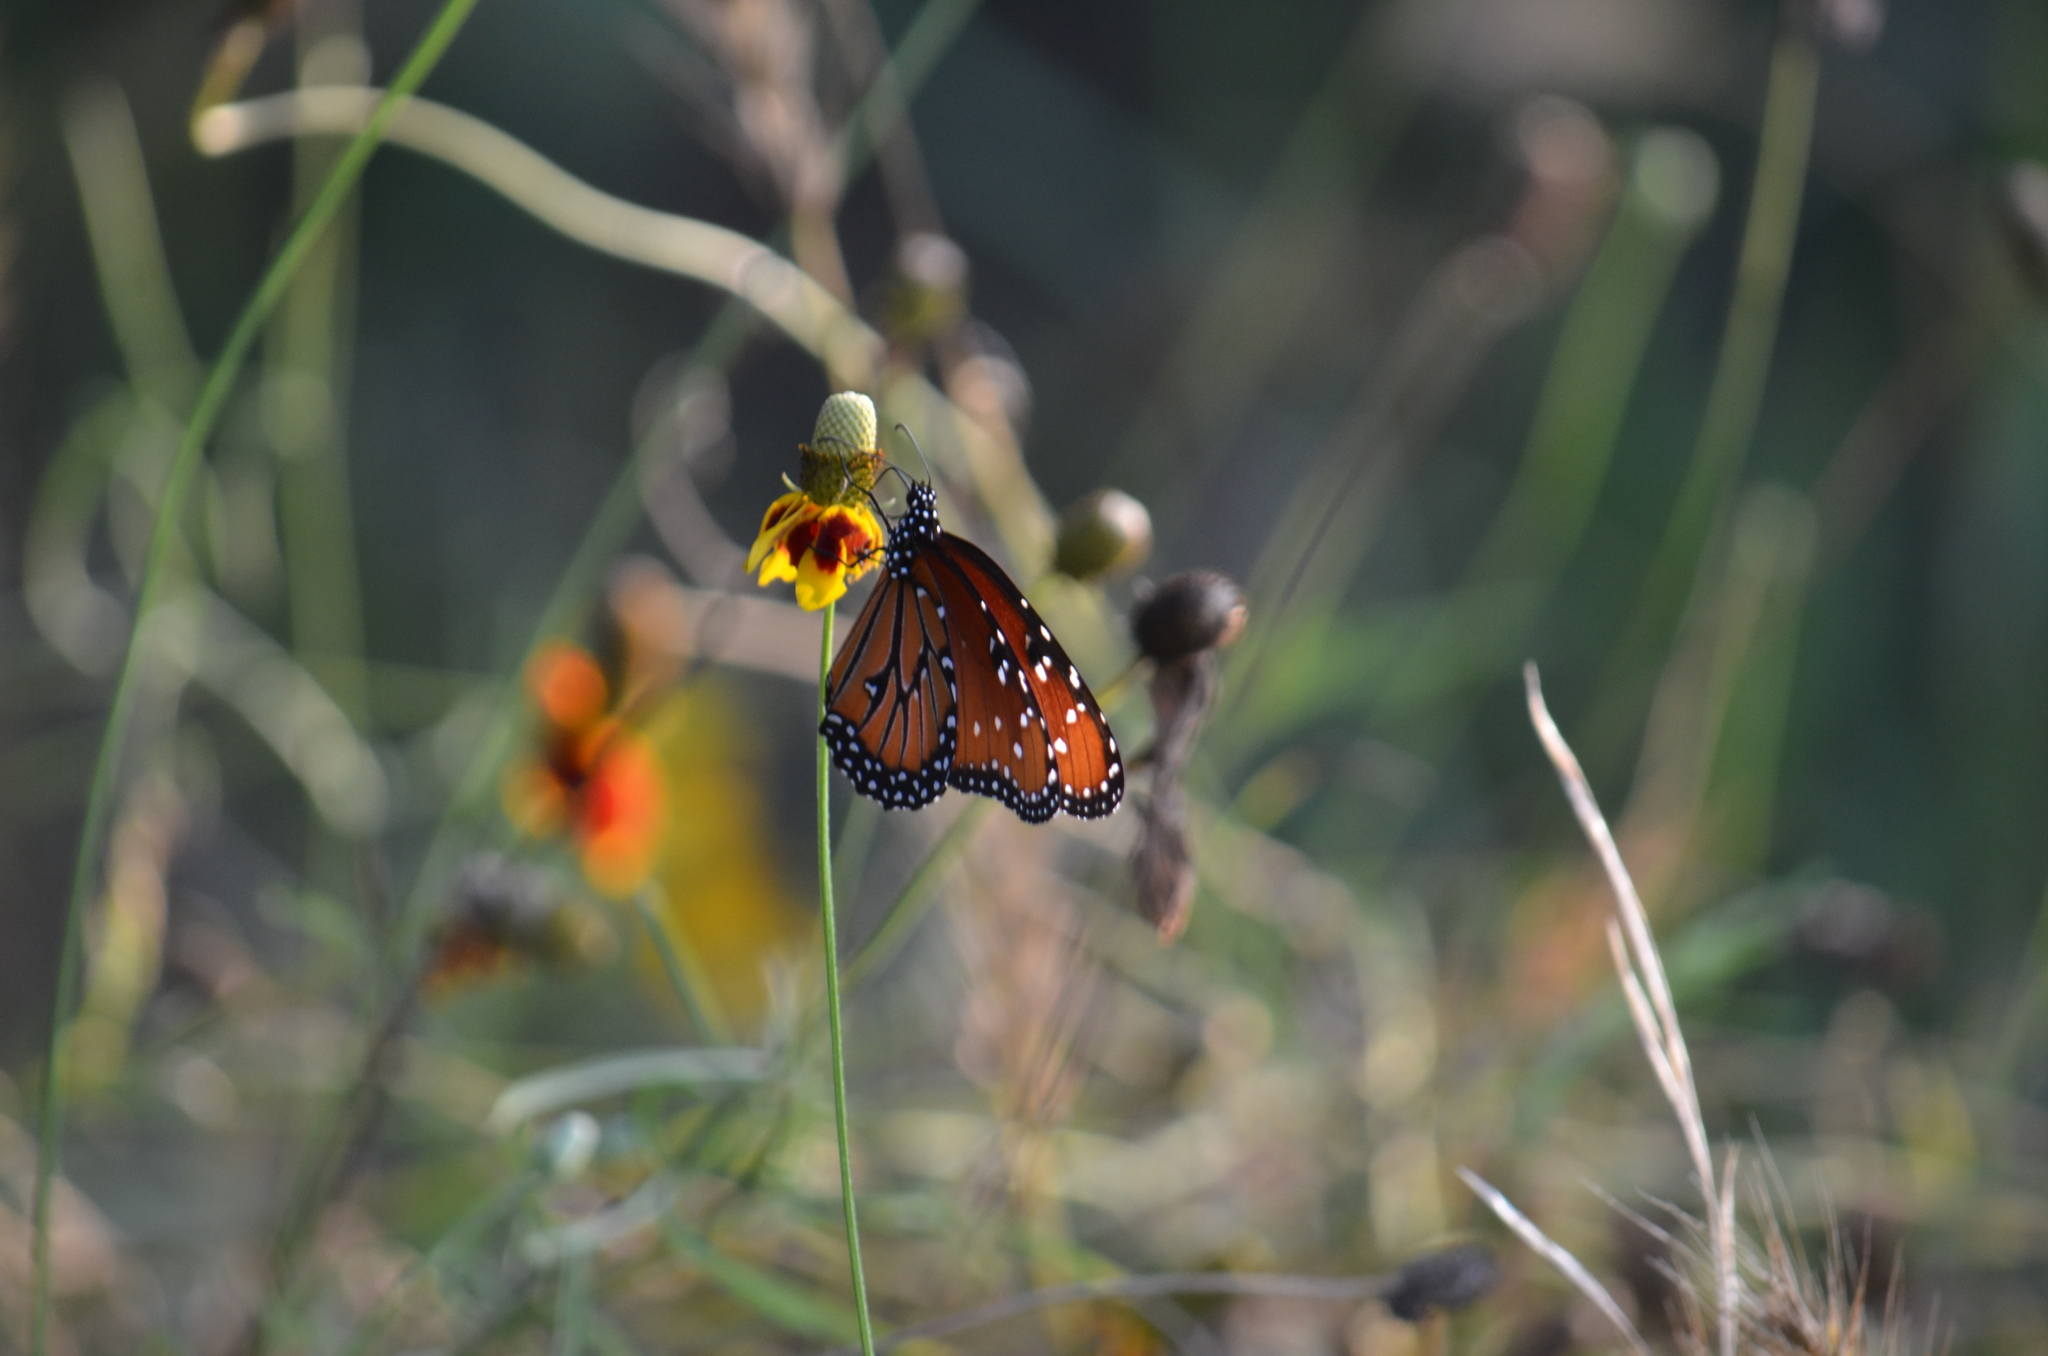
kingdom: Animalia
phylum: Arthropoda
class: Insecta
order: Lepidoptera
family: Nymphalidae
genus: Danaus
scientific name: Danaus gilippus
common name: Queen
